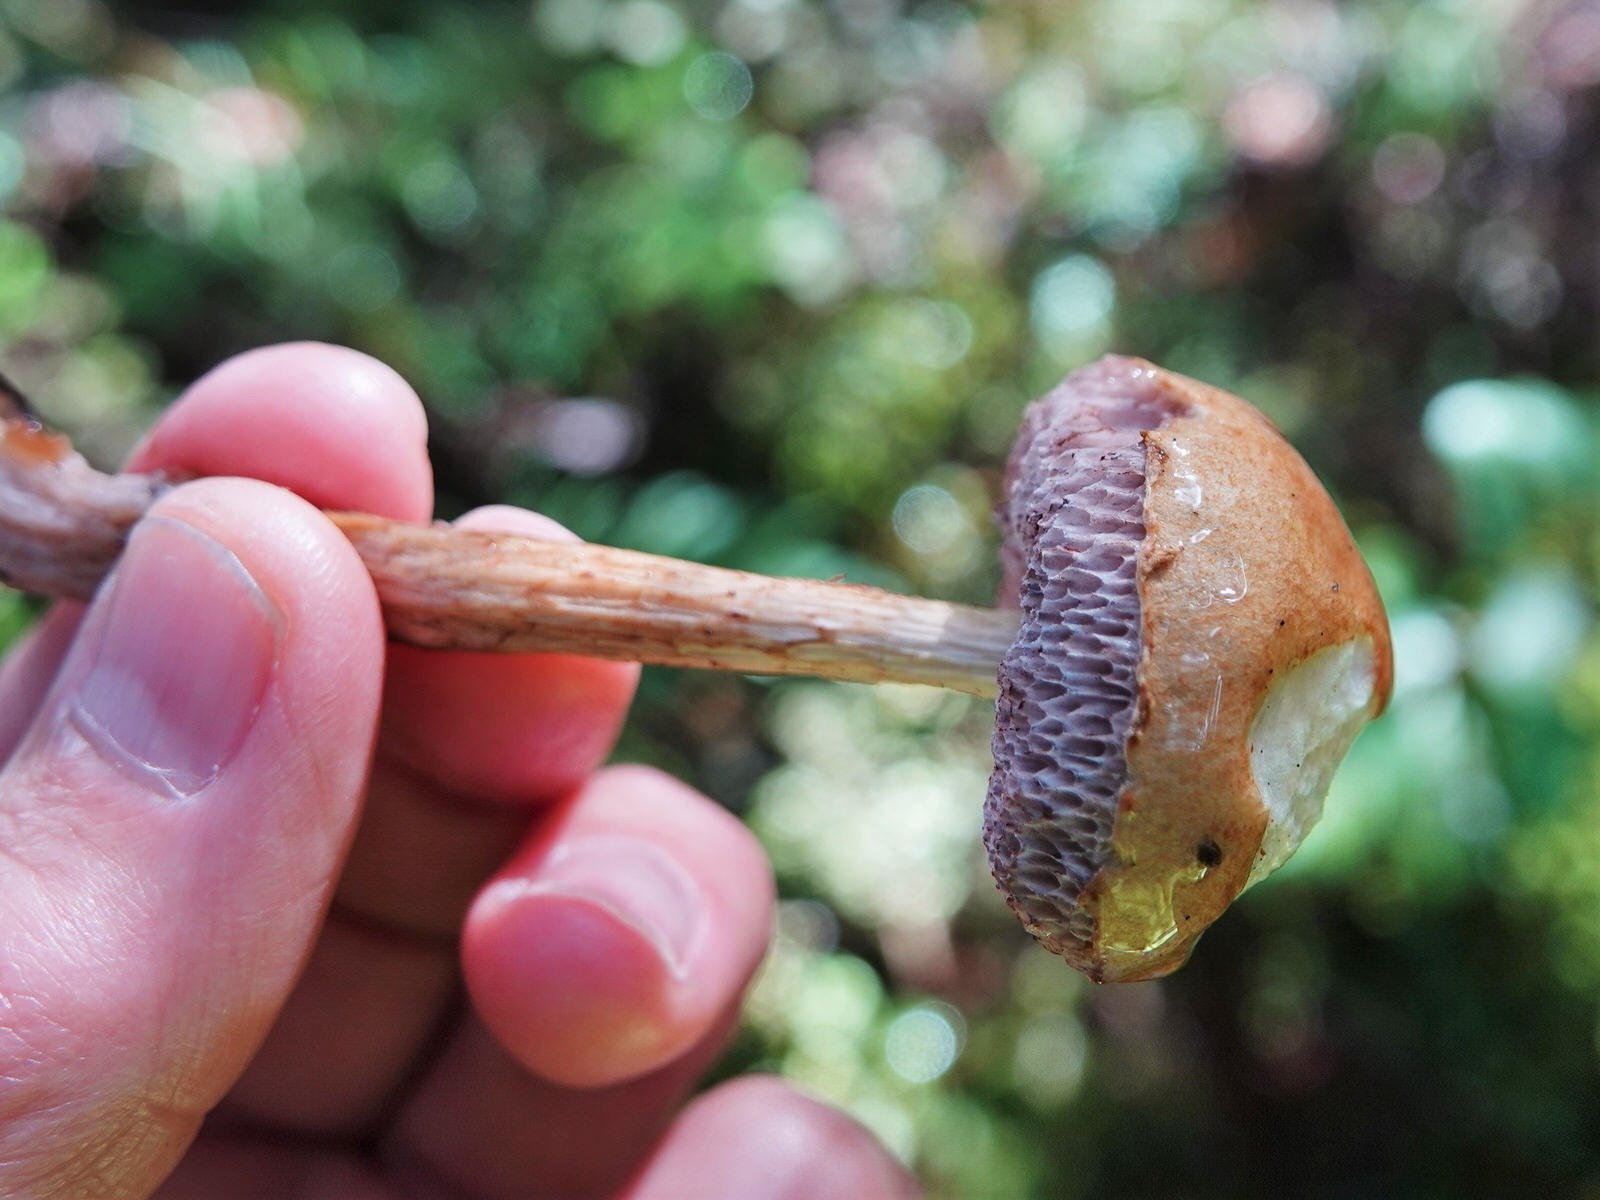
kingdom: Fungi
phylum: Basidiomycota
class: Agaricomycetes
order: Boletales
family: Boletaceae
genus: Austroboletus
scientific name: Austroboletus lacunosus
